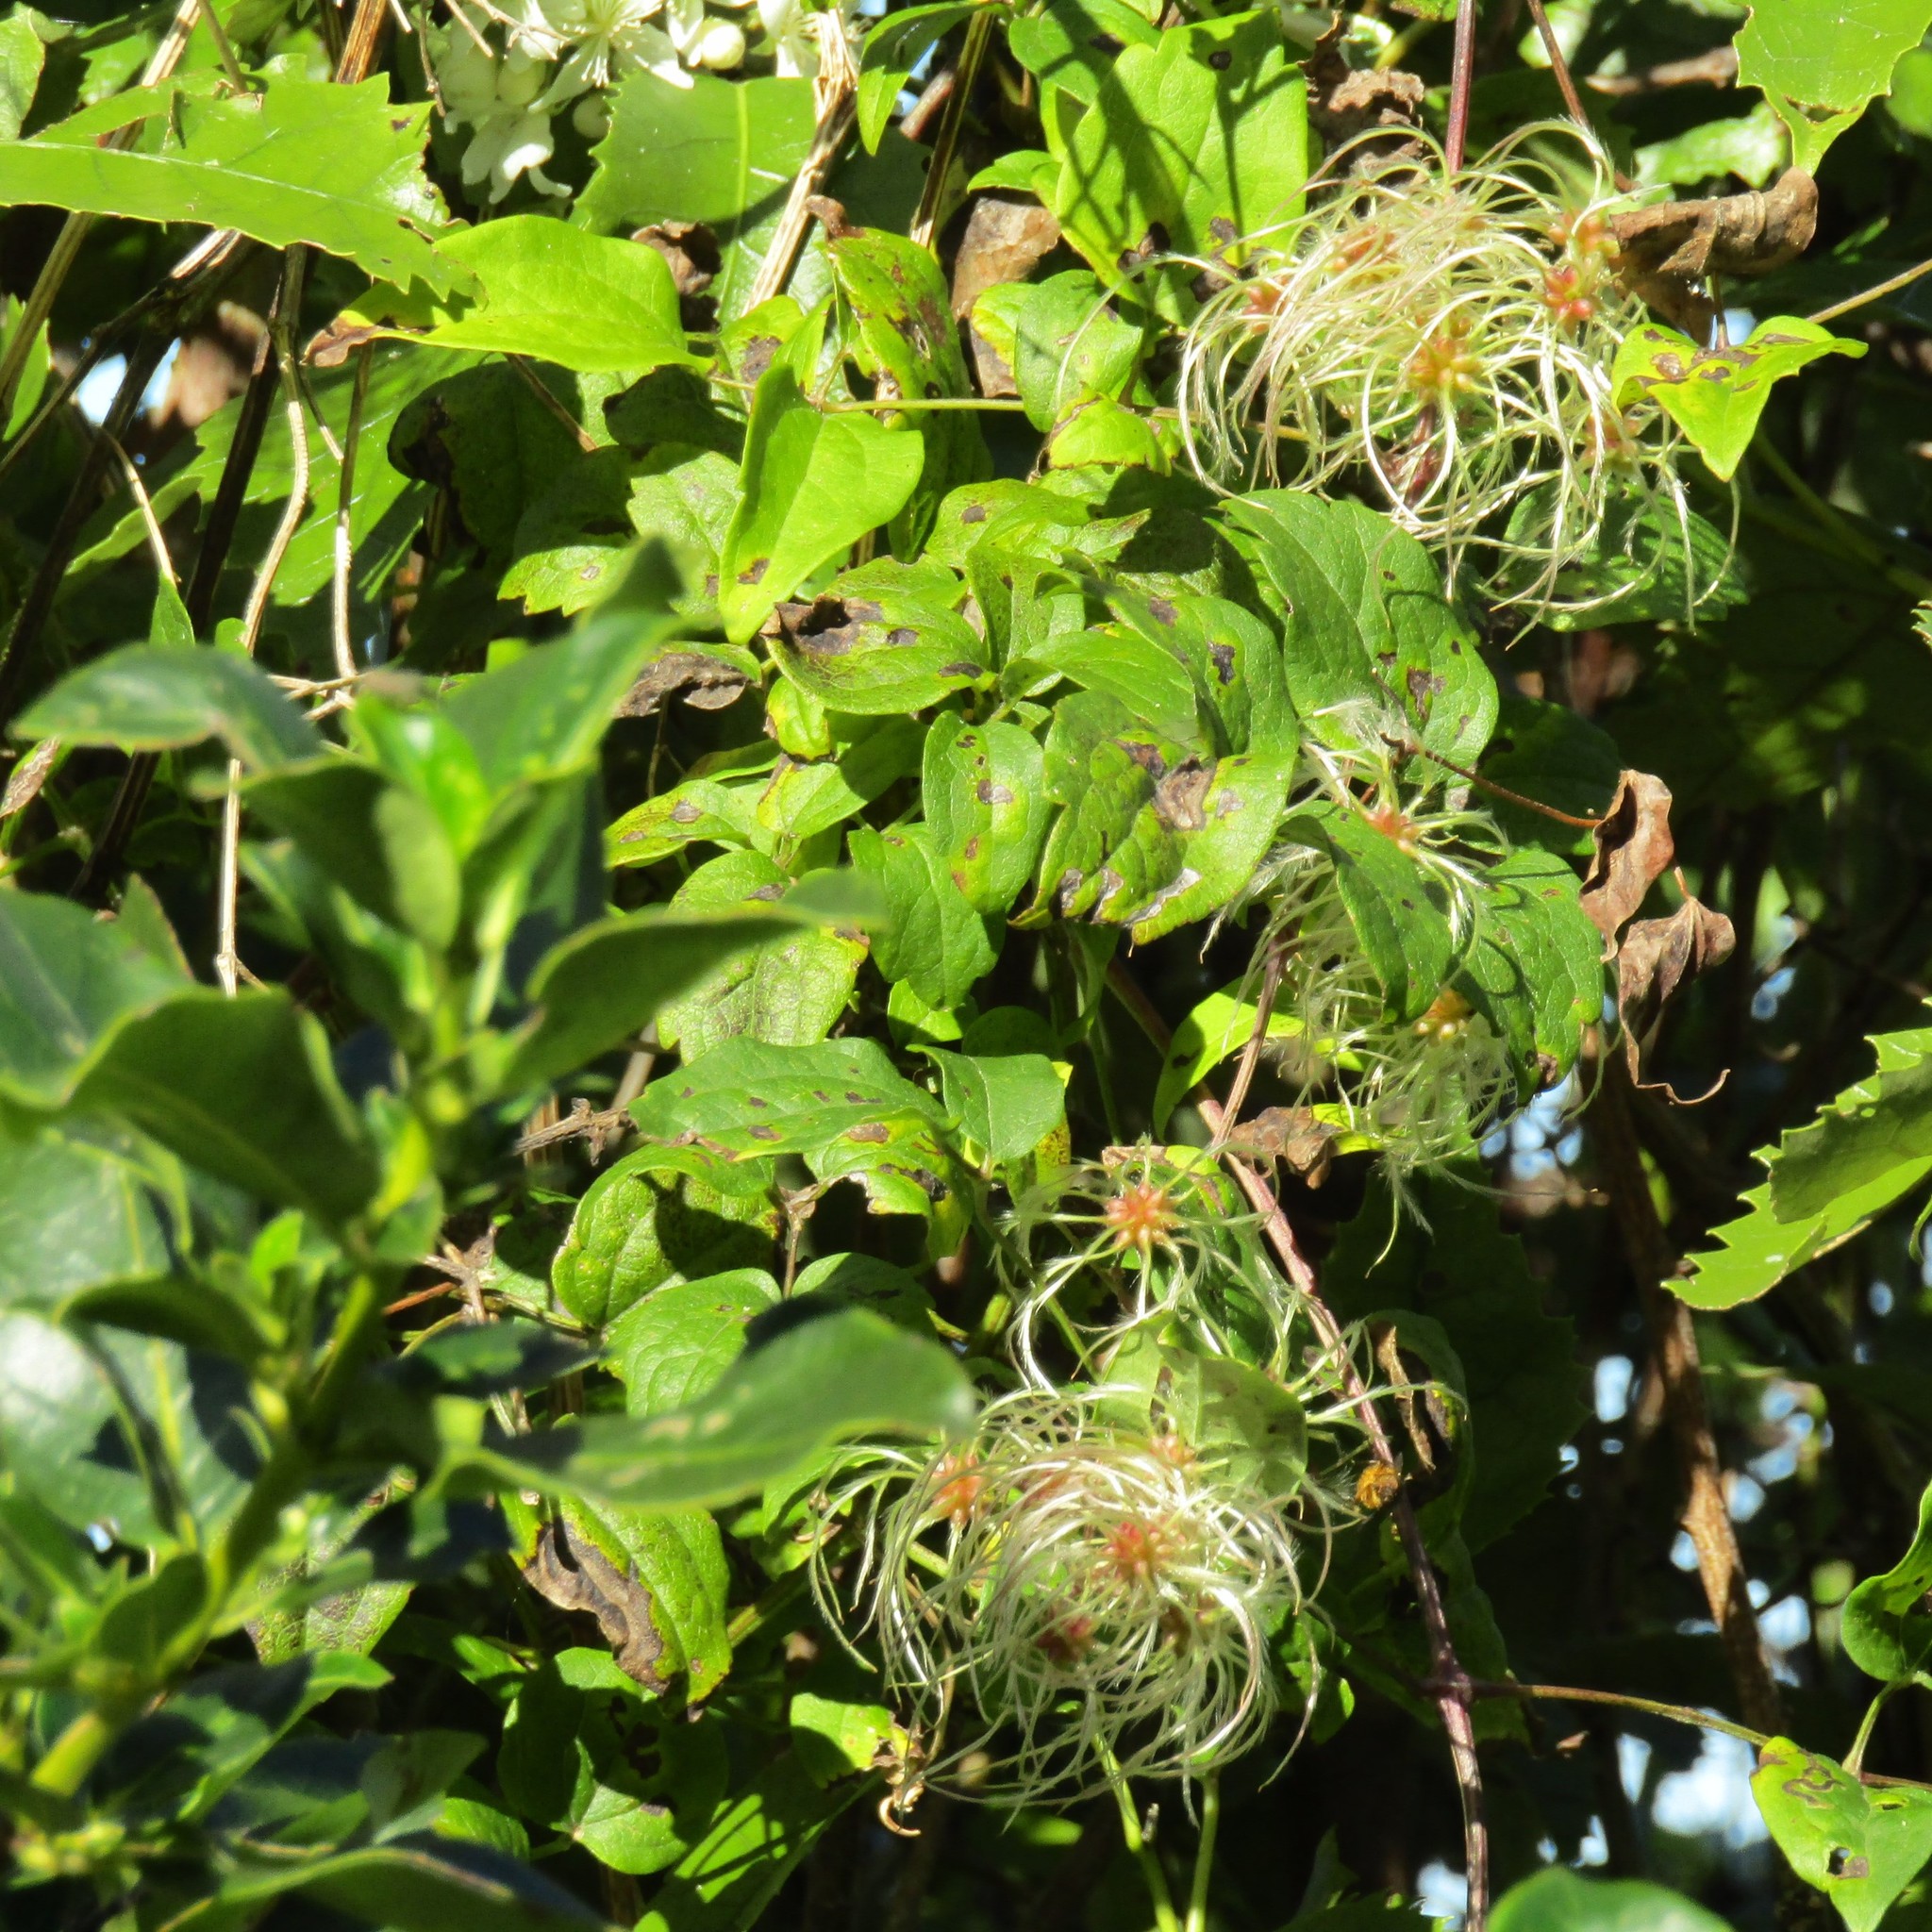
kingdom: Plantae
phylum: Tracheophyta
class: Magnoliopsida
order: Ranunculales
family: Ranunculaceae
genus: Clematis
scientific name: Clematis vitalba
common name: Evergreen clematis
